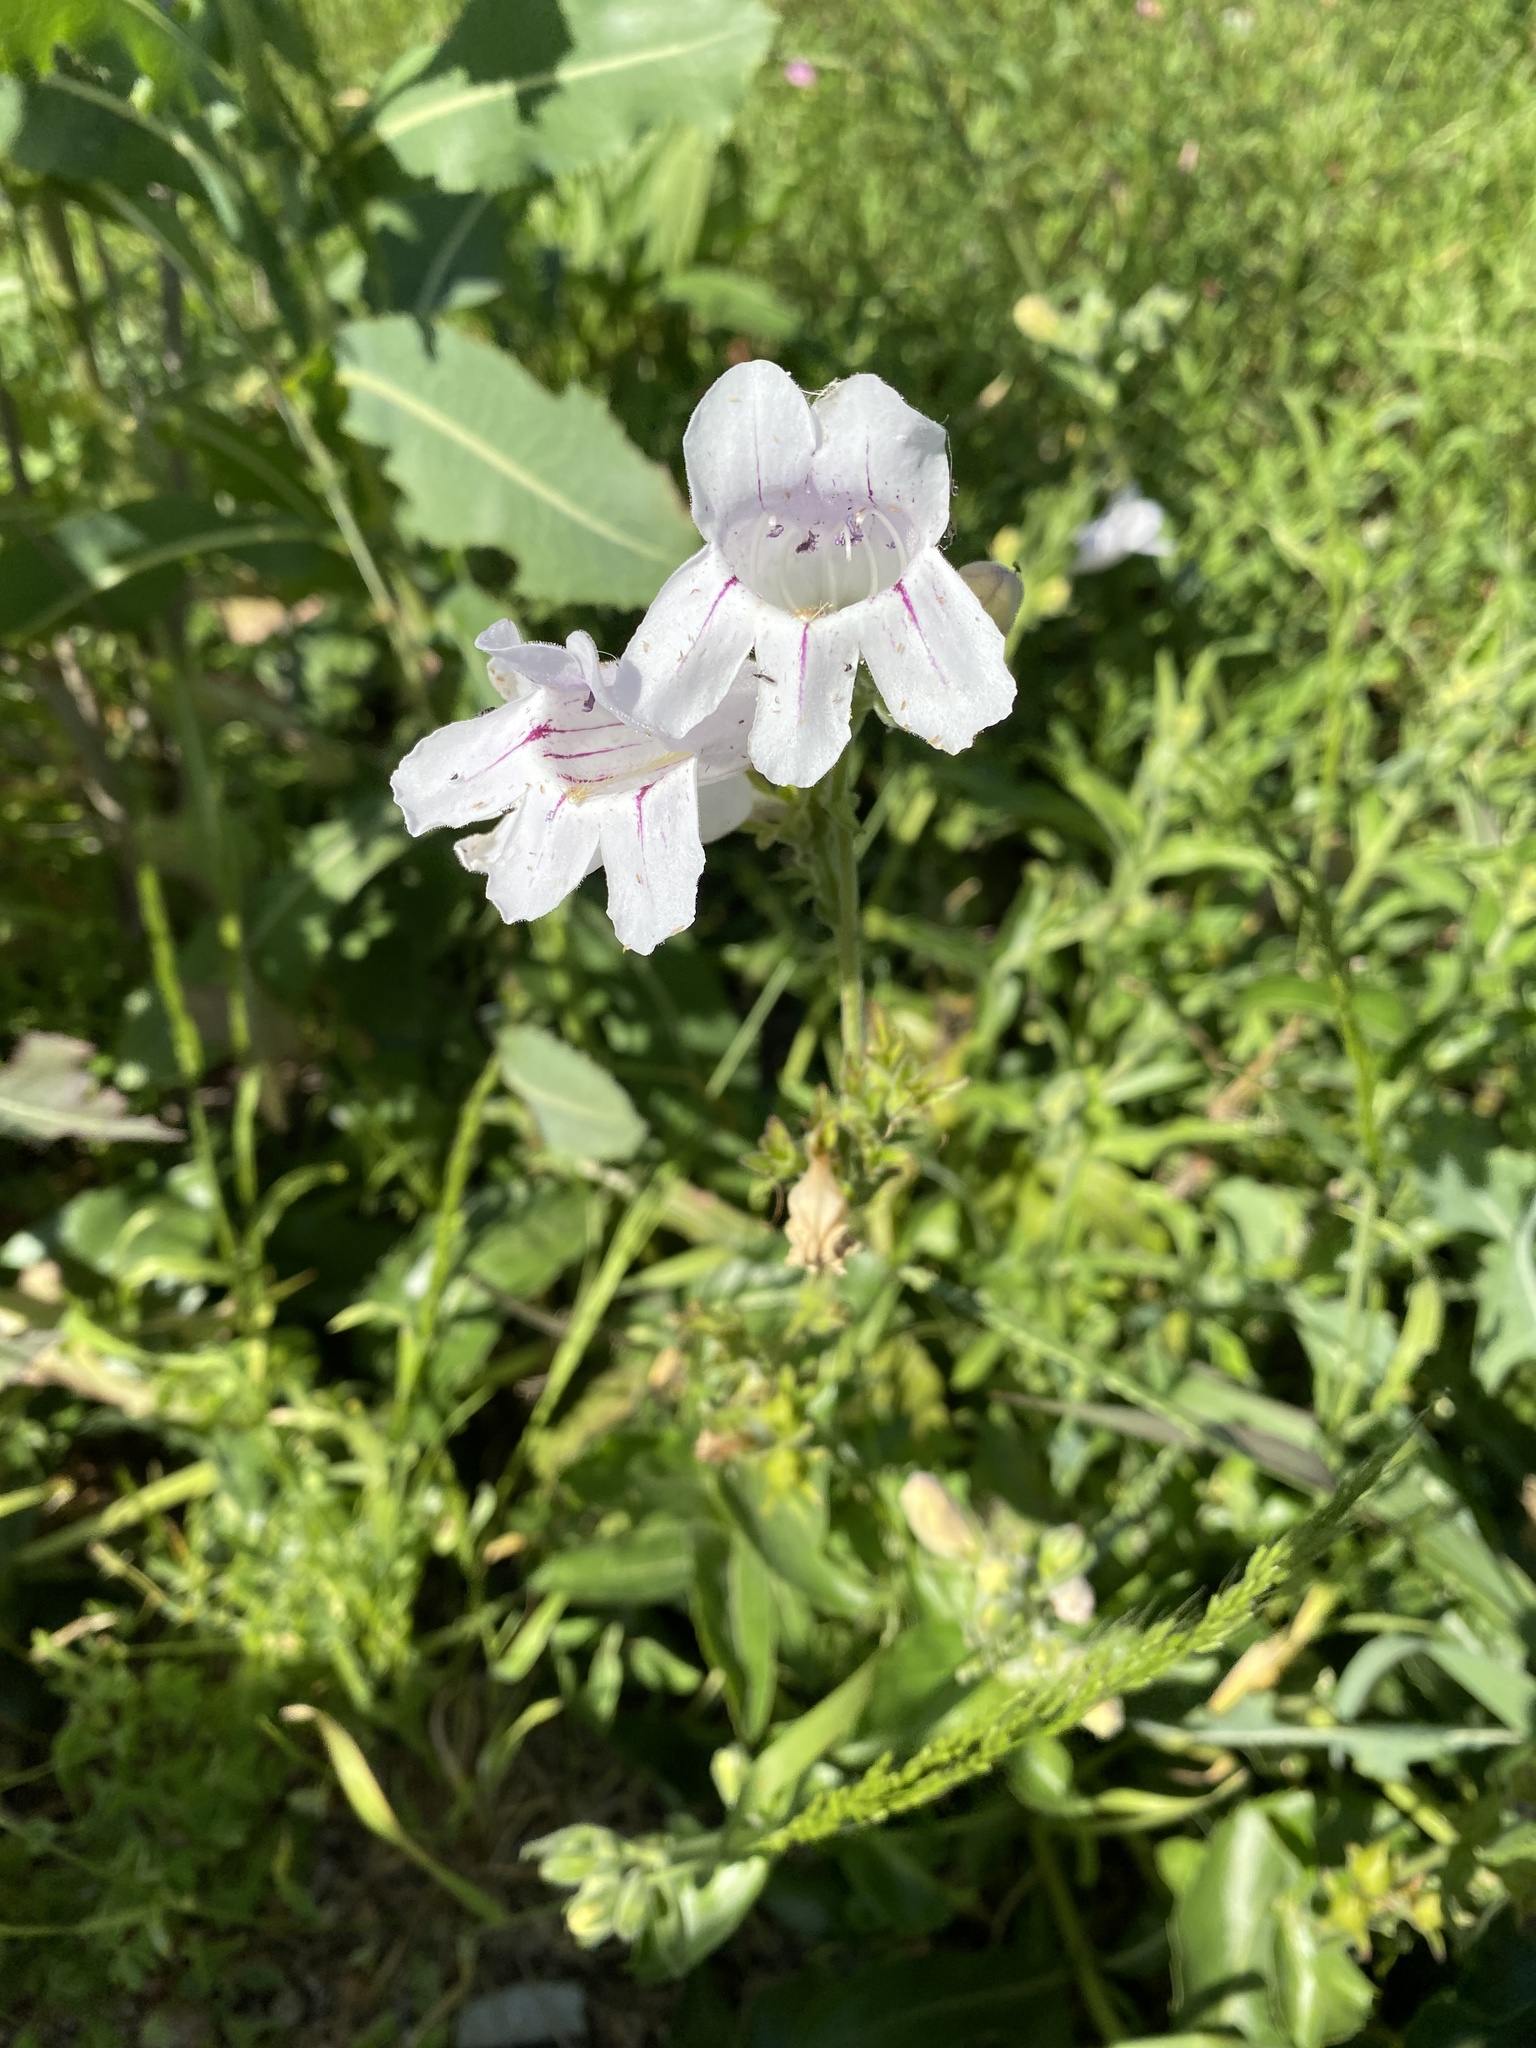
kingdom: Plantae
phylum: Tracheophyta
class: Magnoliopsida
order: Lamiales
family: Plantaginaceae
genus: Penstemon
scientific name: Penstemon cobaea
